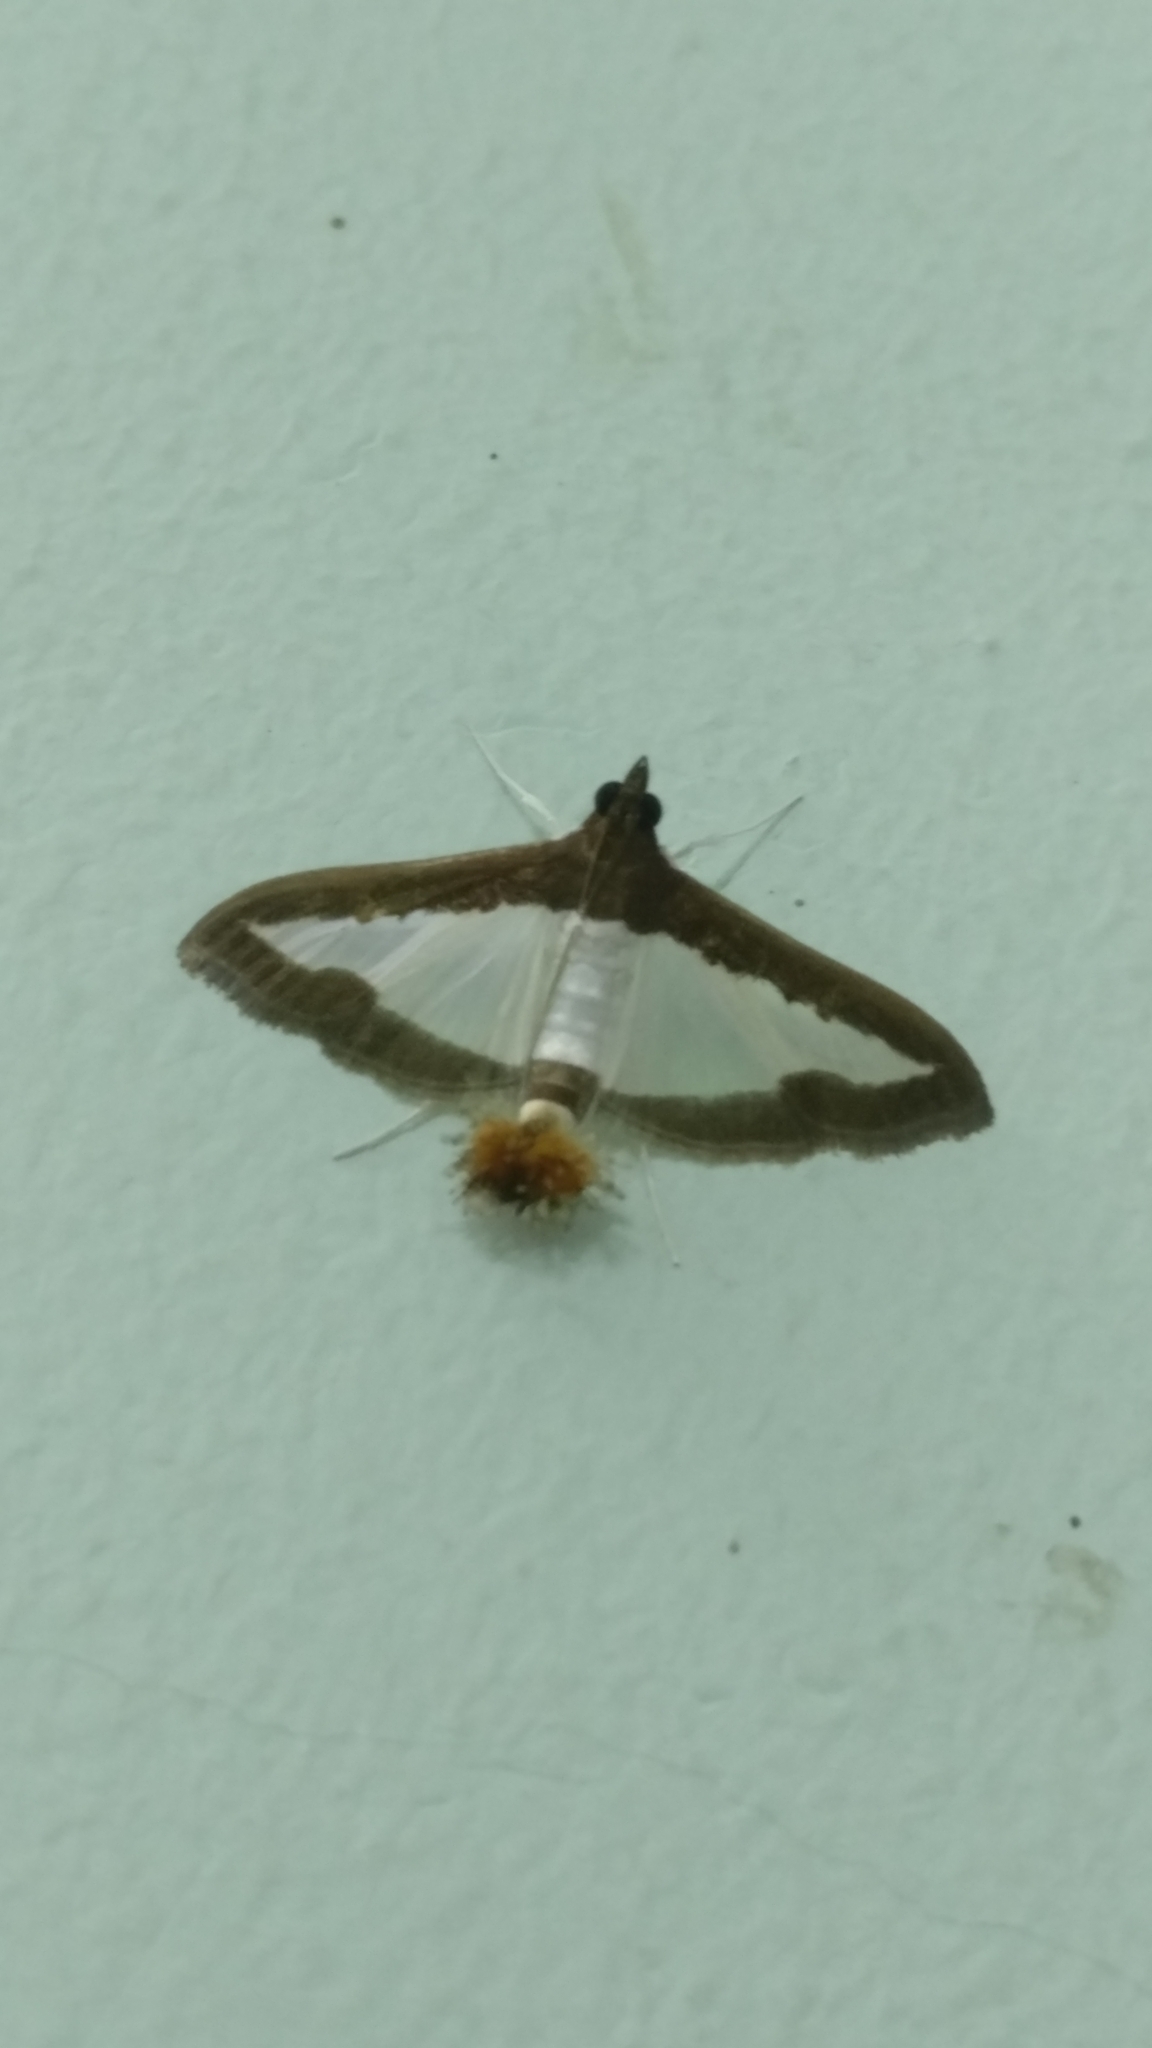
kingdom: Animalia
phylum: Arthropoda
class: Insecta
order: Lepidoptera
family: Crambidae
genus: Diaphania
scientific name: Diaphania indica
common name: Cucumber moth
